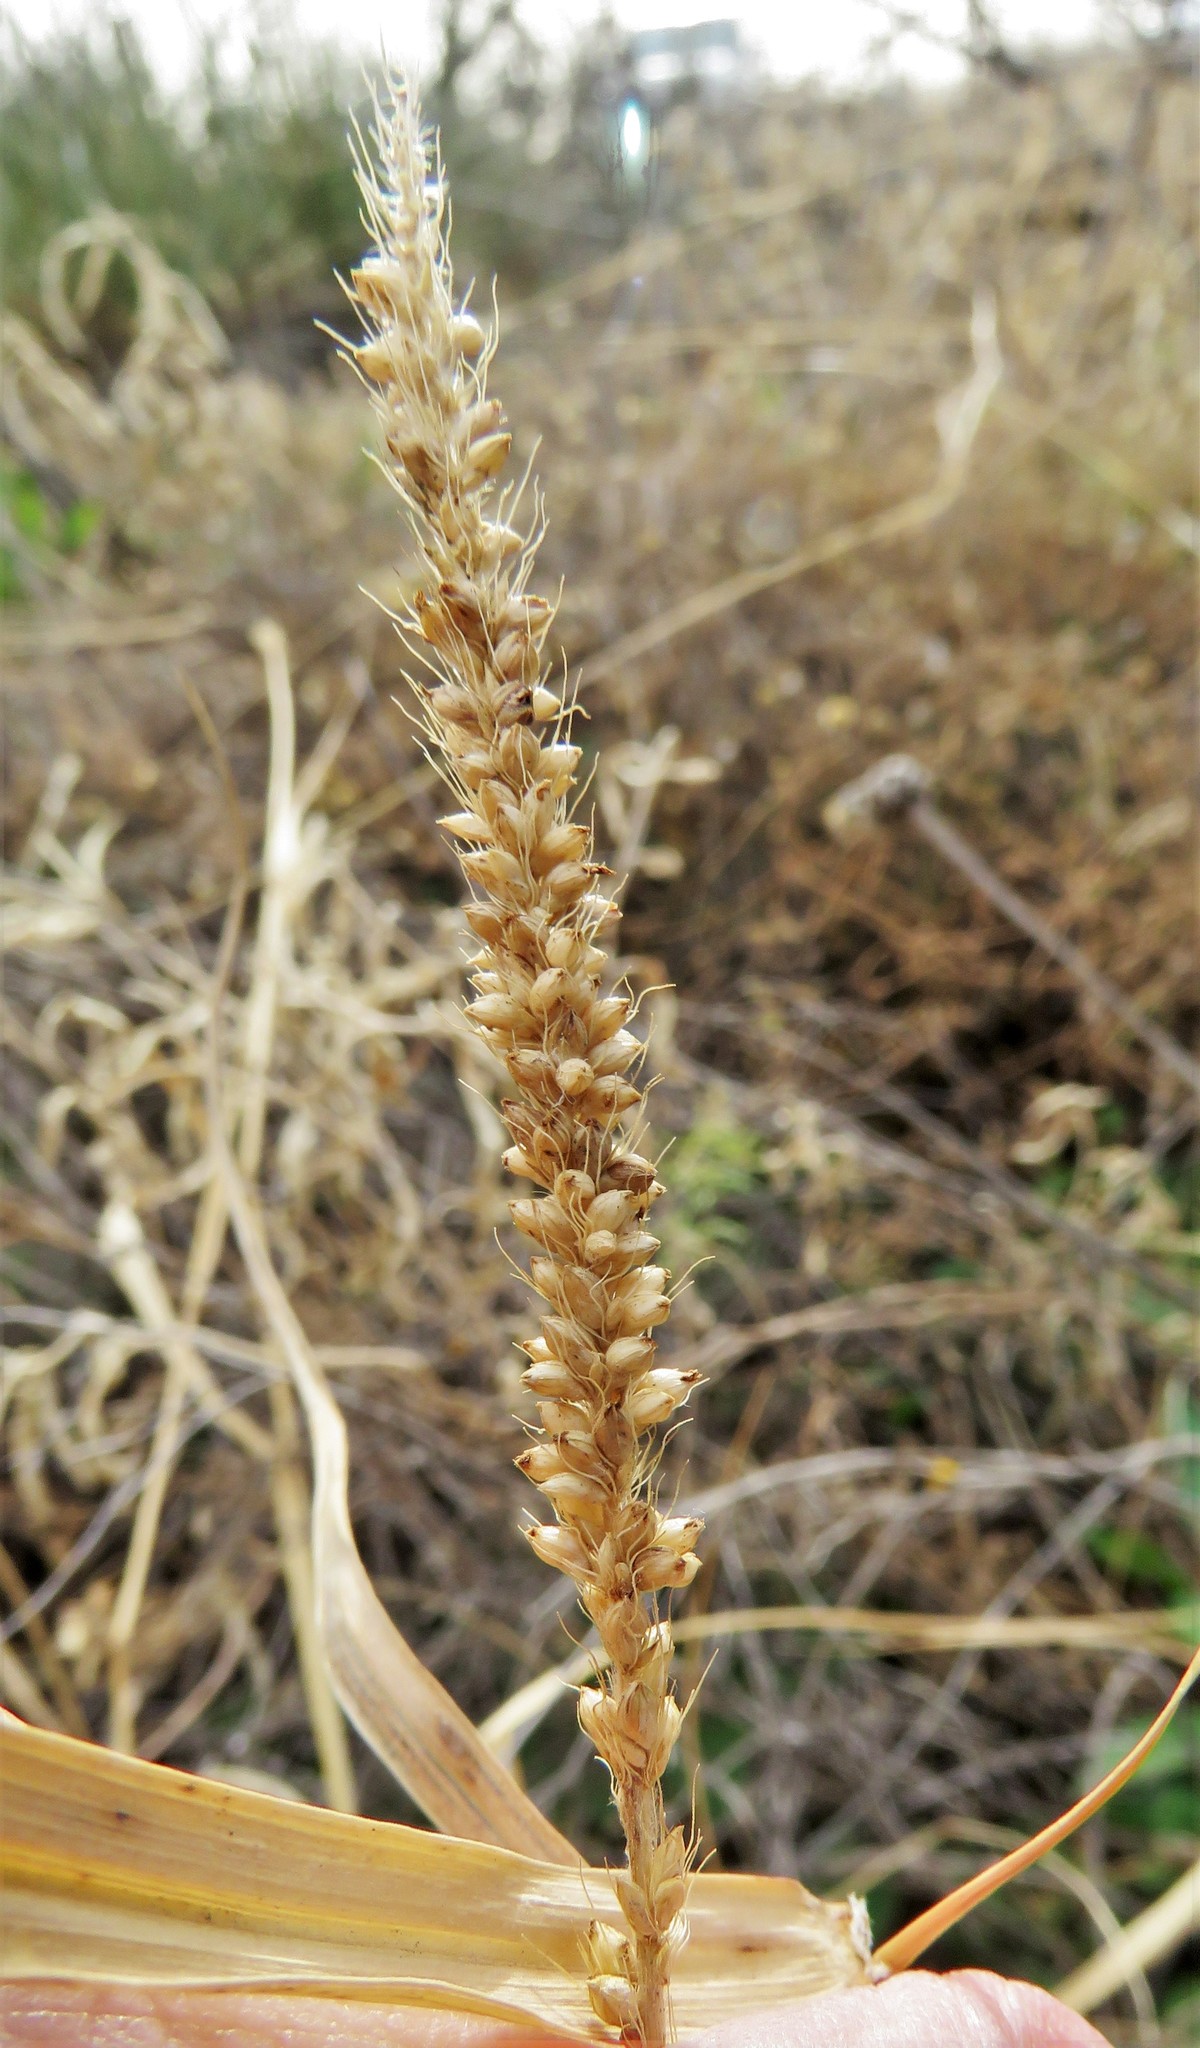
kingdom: Plantae
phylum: Tracheophyta
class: Liliopsida
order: Poales
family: Poaceae
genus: Setaria
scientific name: Setaria leucopila
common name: Plains bristle grass
